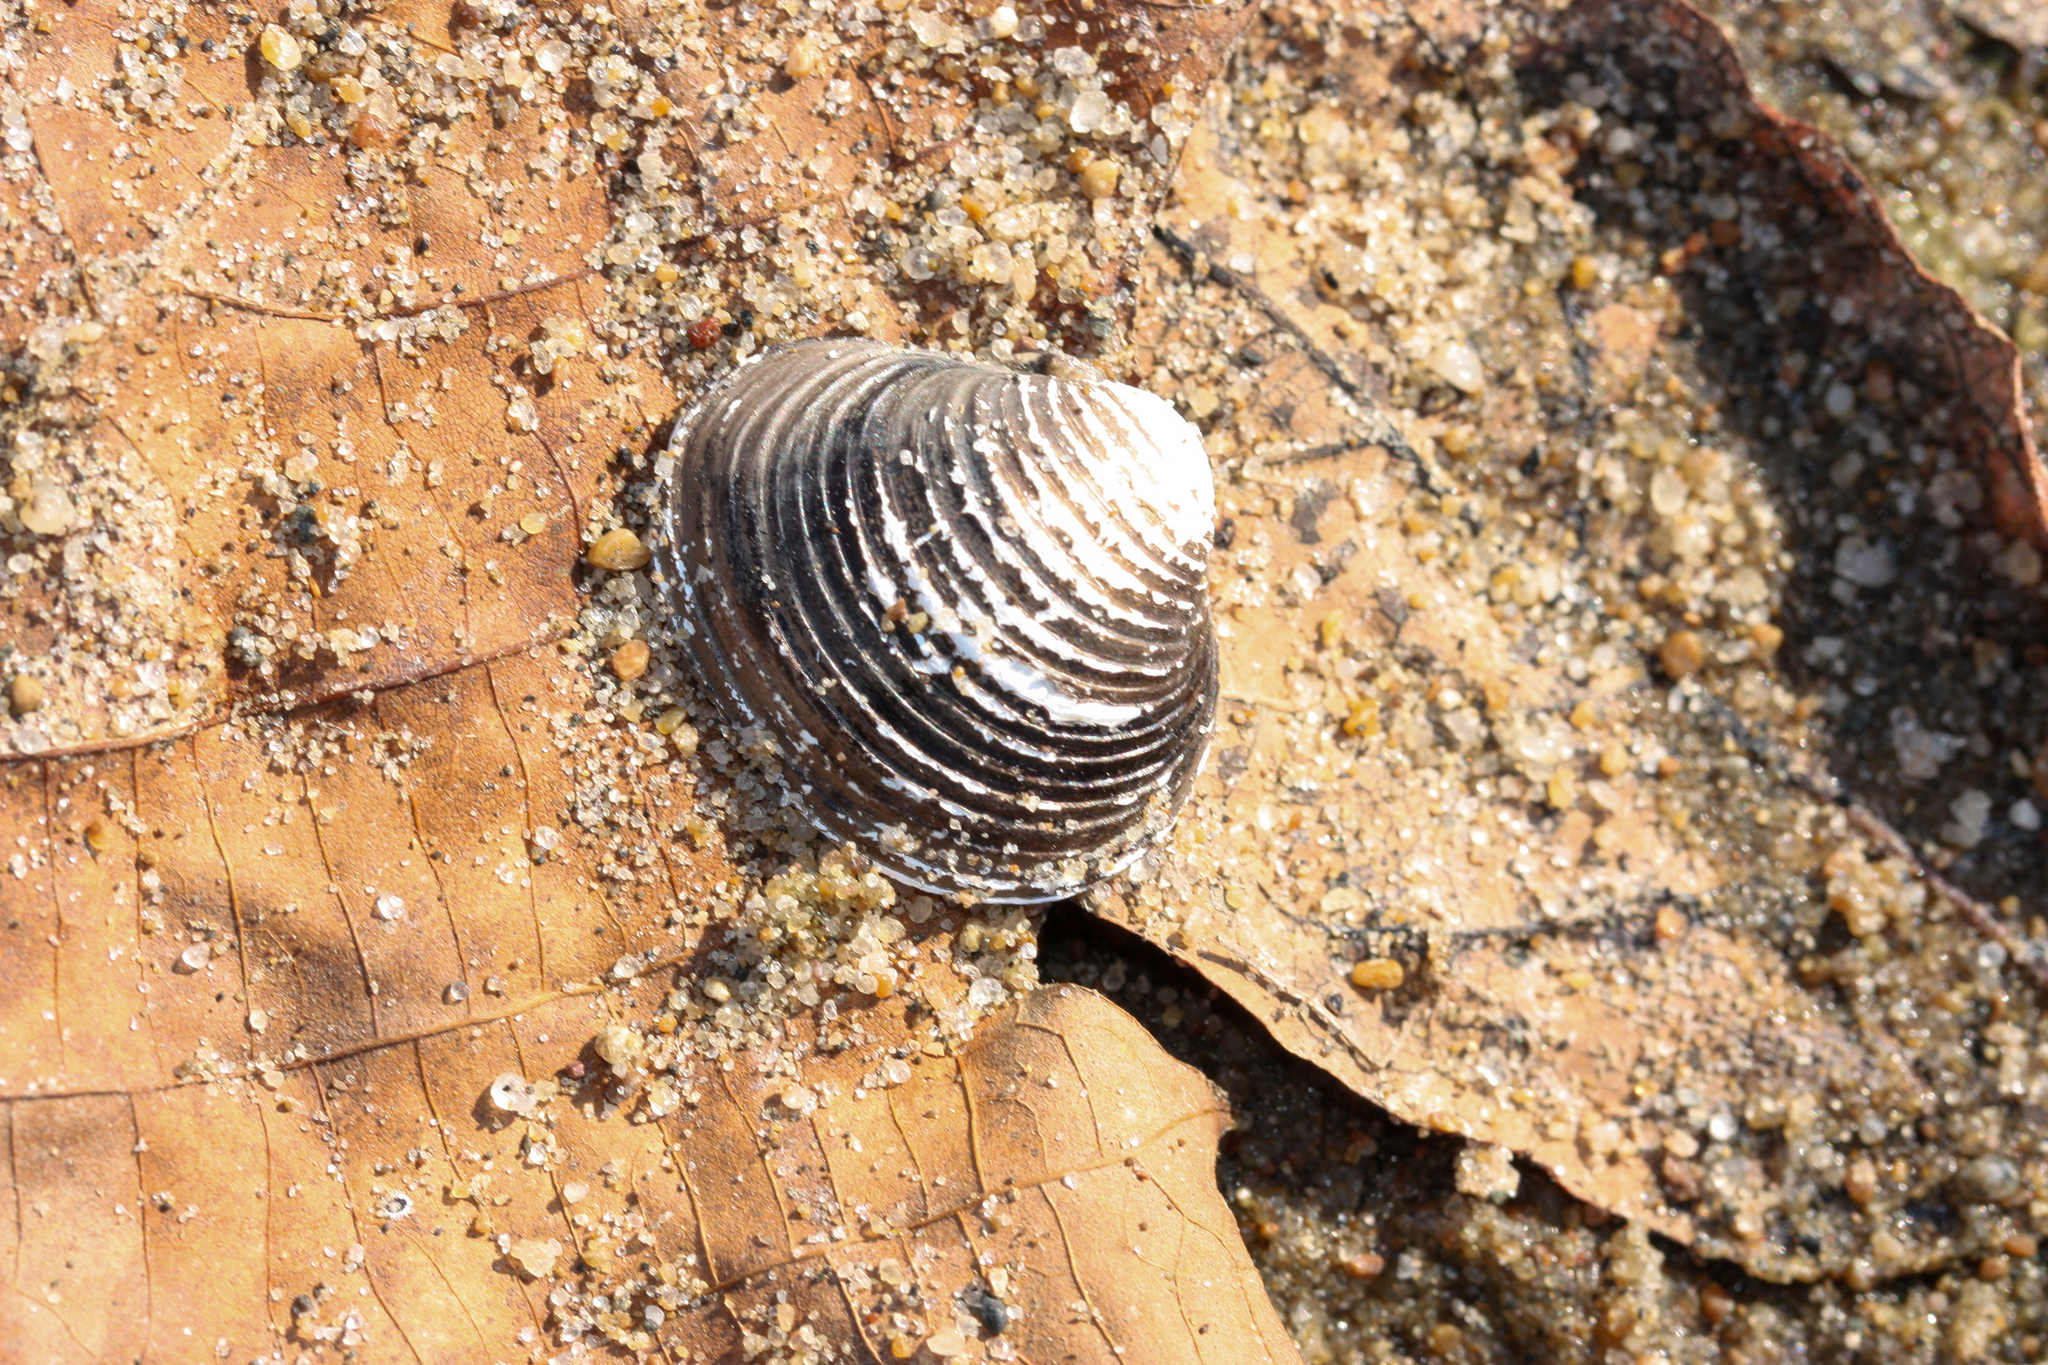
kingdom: Animalia
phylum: Mollusca
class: Bivalvia
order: Venerida
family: Cyrenidae
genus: Corbicula
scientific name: Corbicula fluminea
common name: Asian clam
